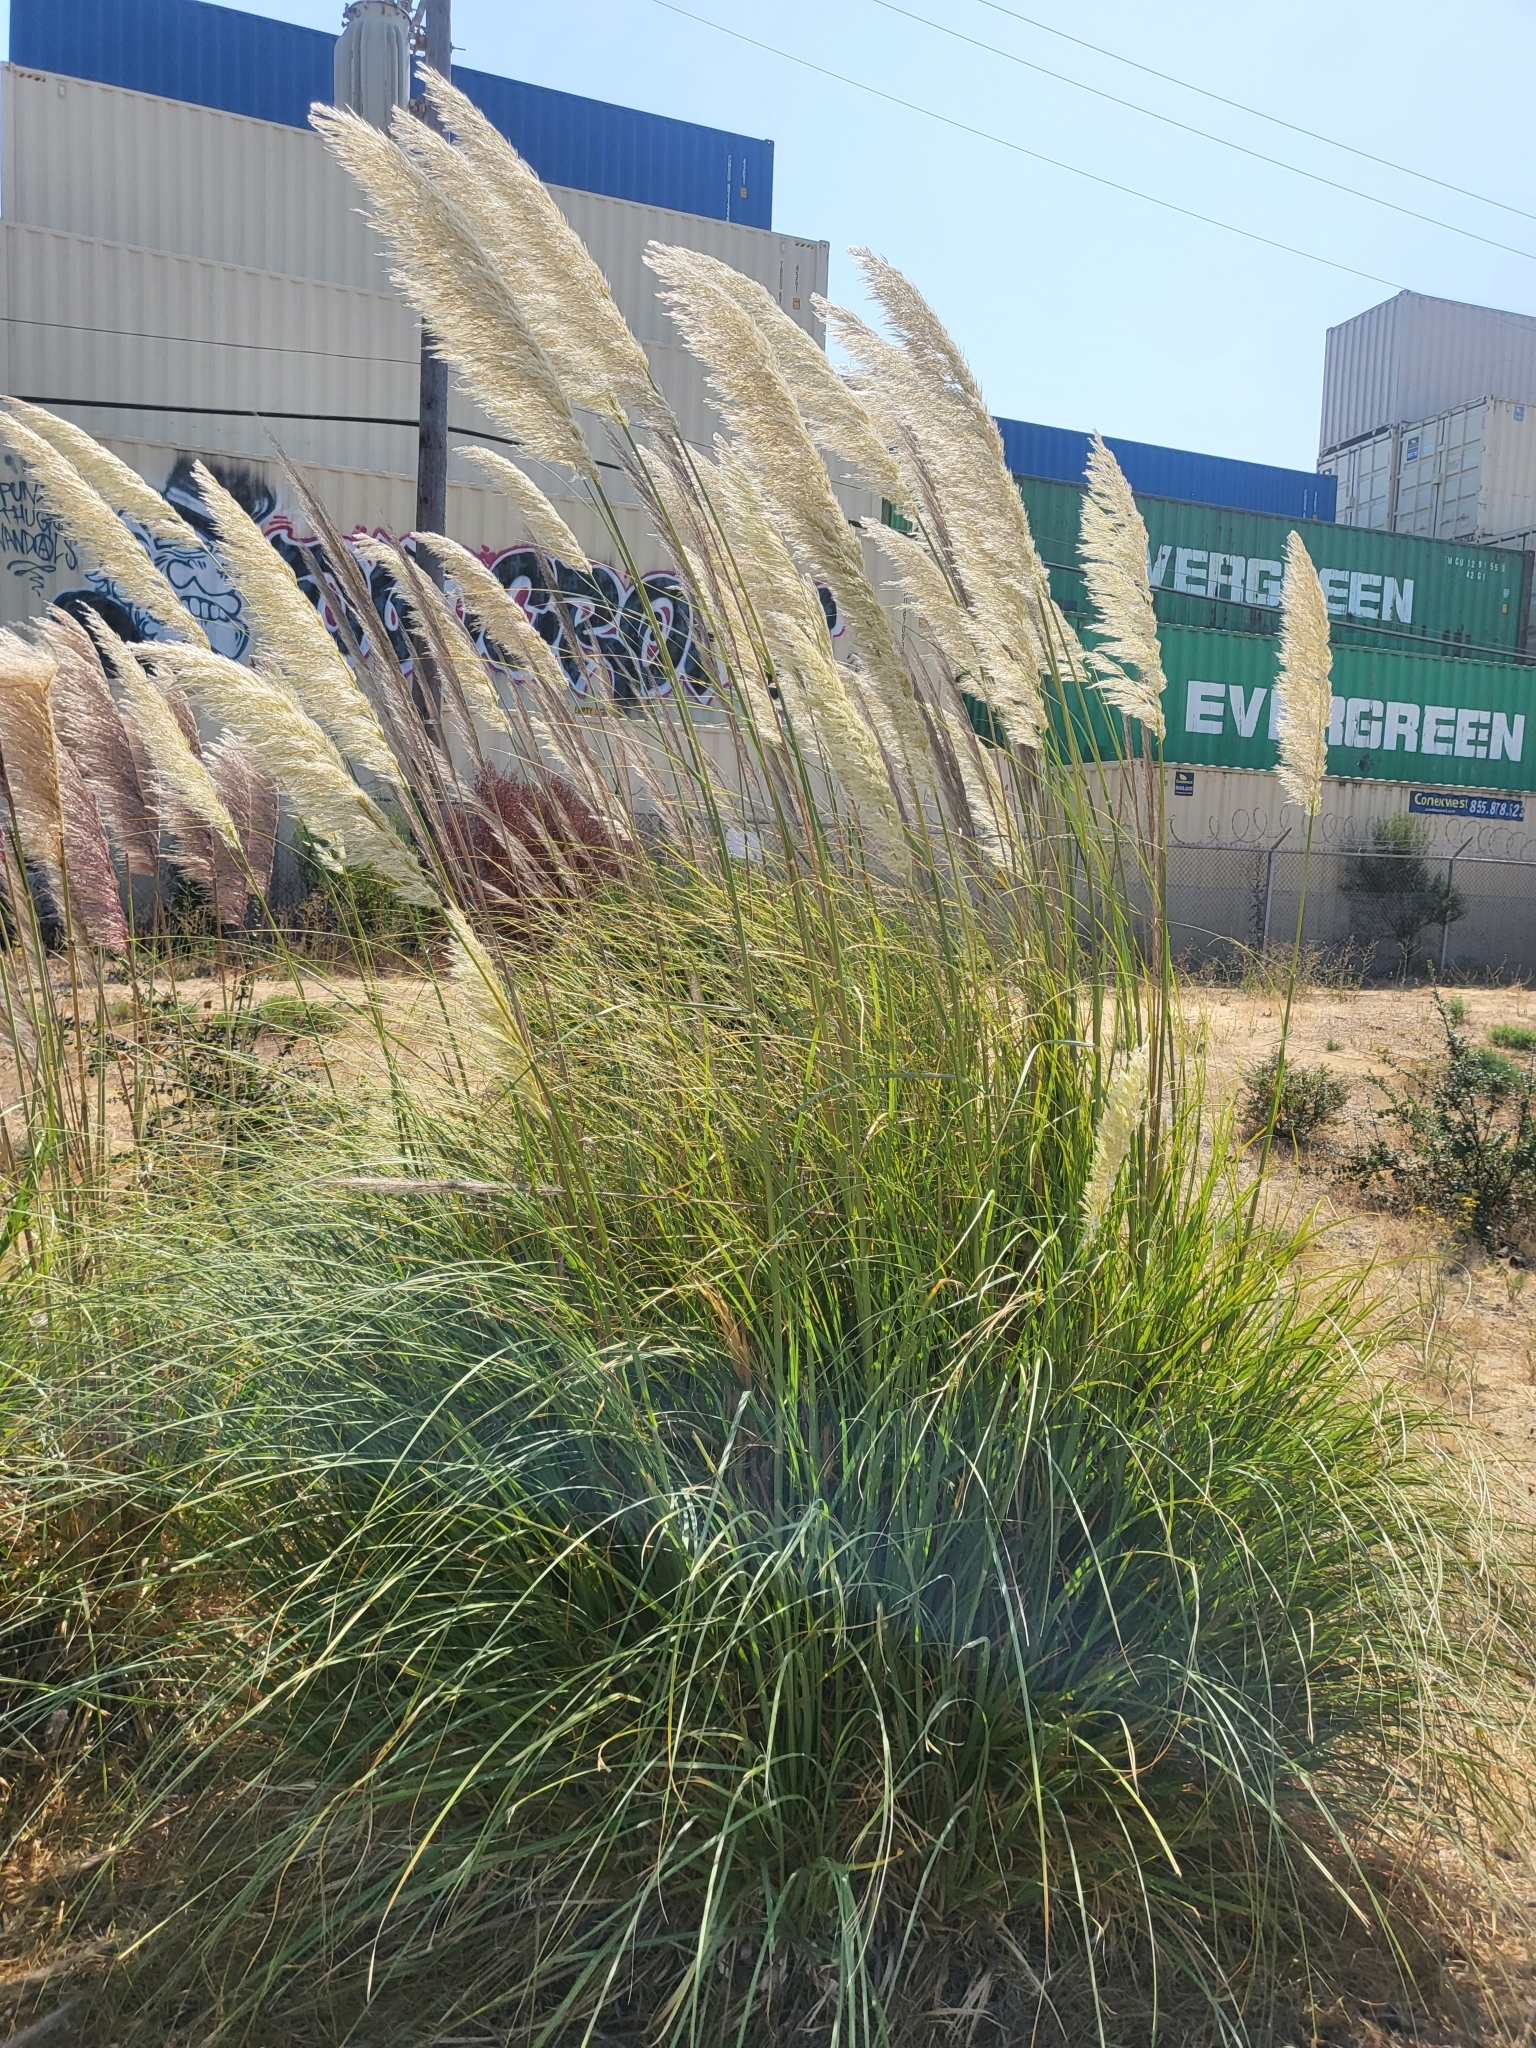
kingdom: Plantae
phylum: Tracheophyta
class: Liliopsida
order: Poales
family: Poaceae
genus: Cortaderia
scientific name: Cortaderia selloana
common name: Uruguayan pampas grass
